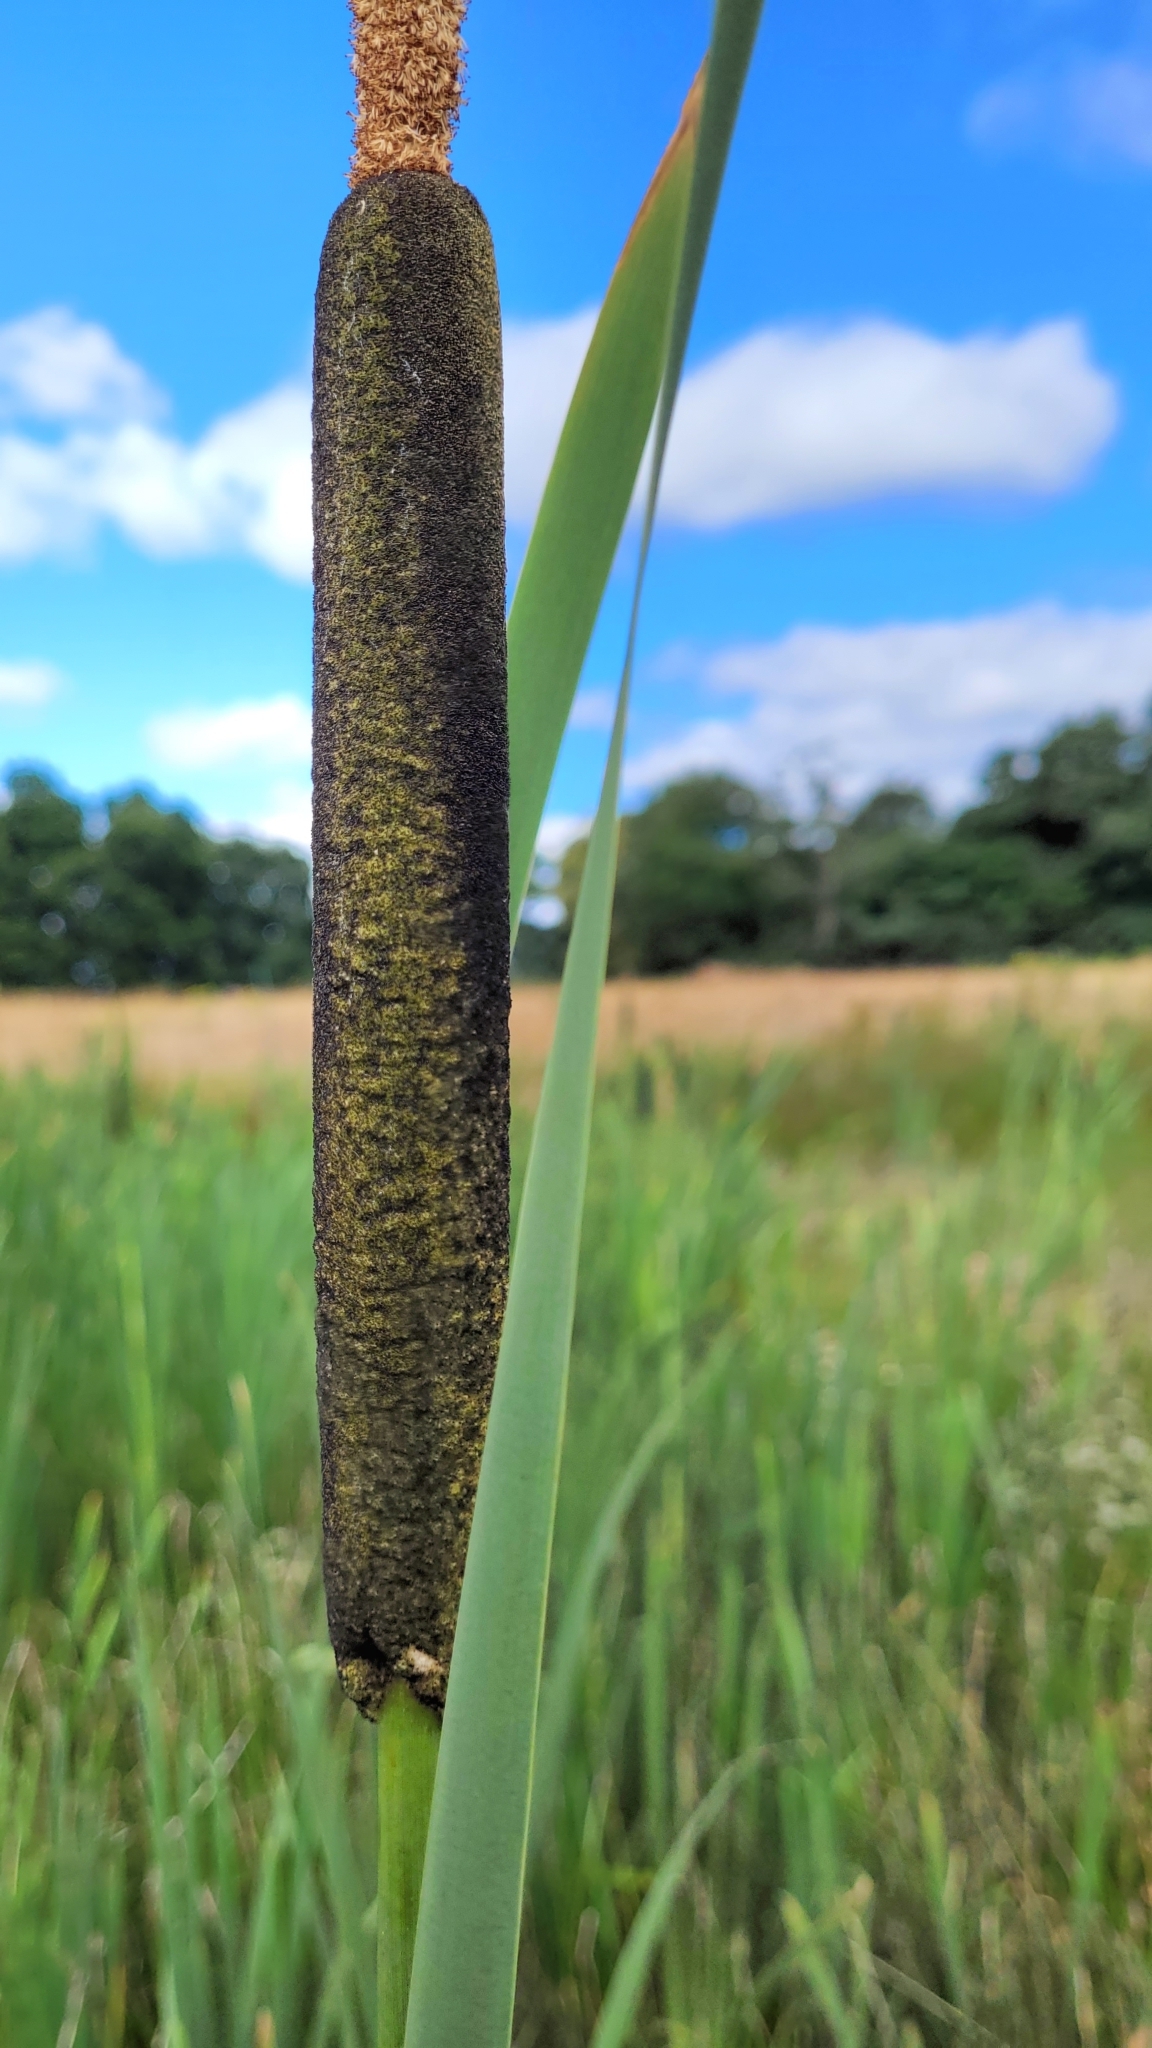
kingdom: Plantae
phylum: Tracheophyta
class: Liliopsida
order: Poales
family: Typhaceae
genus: Typha
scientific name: Typha latifolia
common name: Broadleaf cattail
